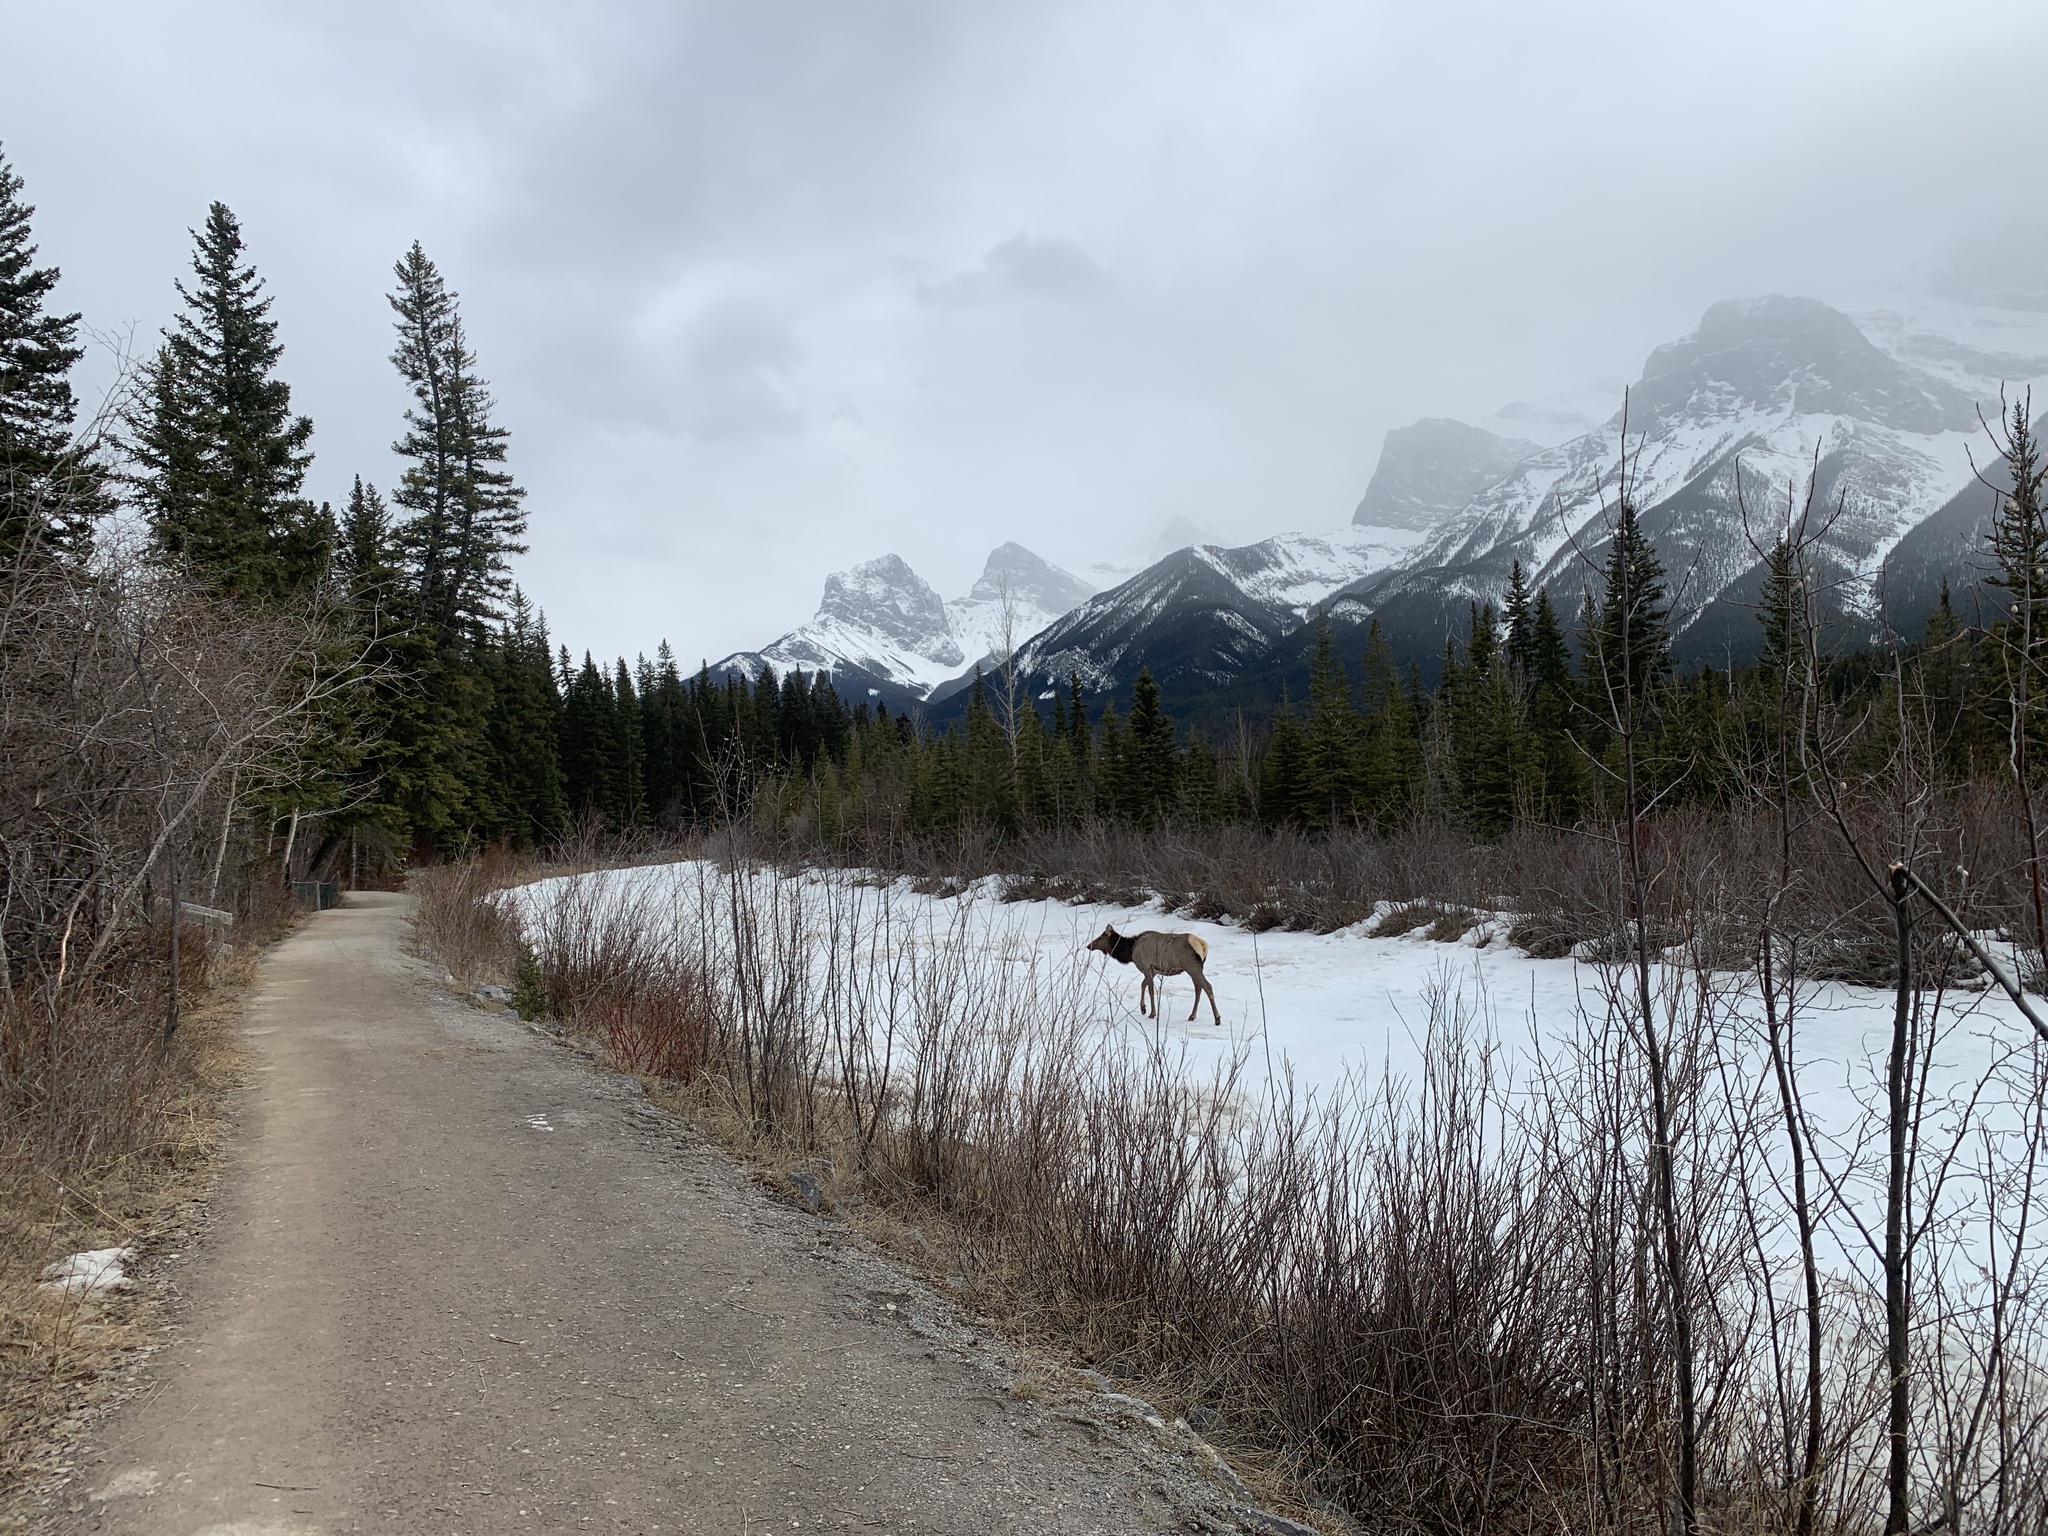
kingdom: Animalia
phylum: Chordata
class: Mammalia
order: Artiodactyla
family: Cervidae
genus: Cervus
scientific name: Cervus elaphus
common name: Red deer
